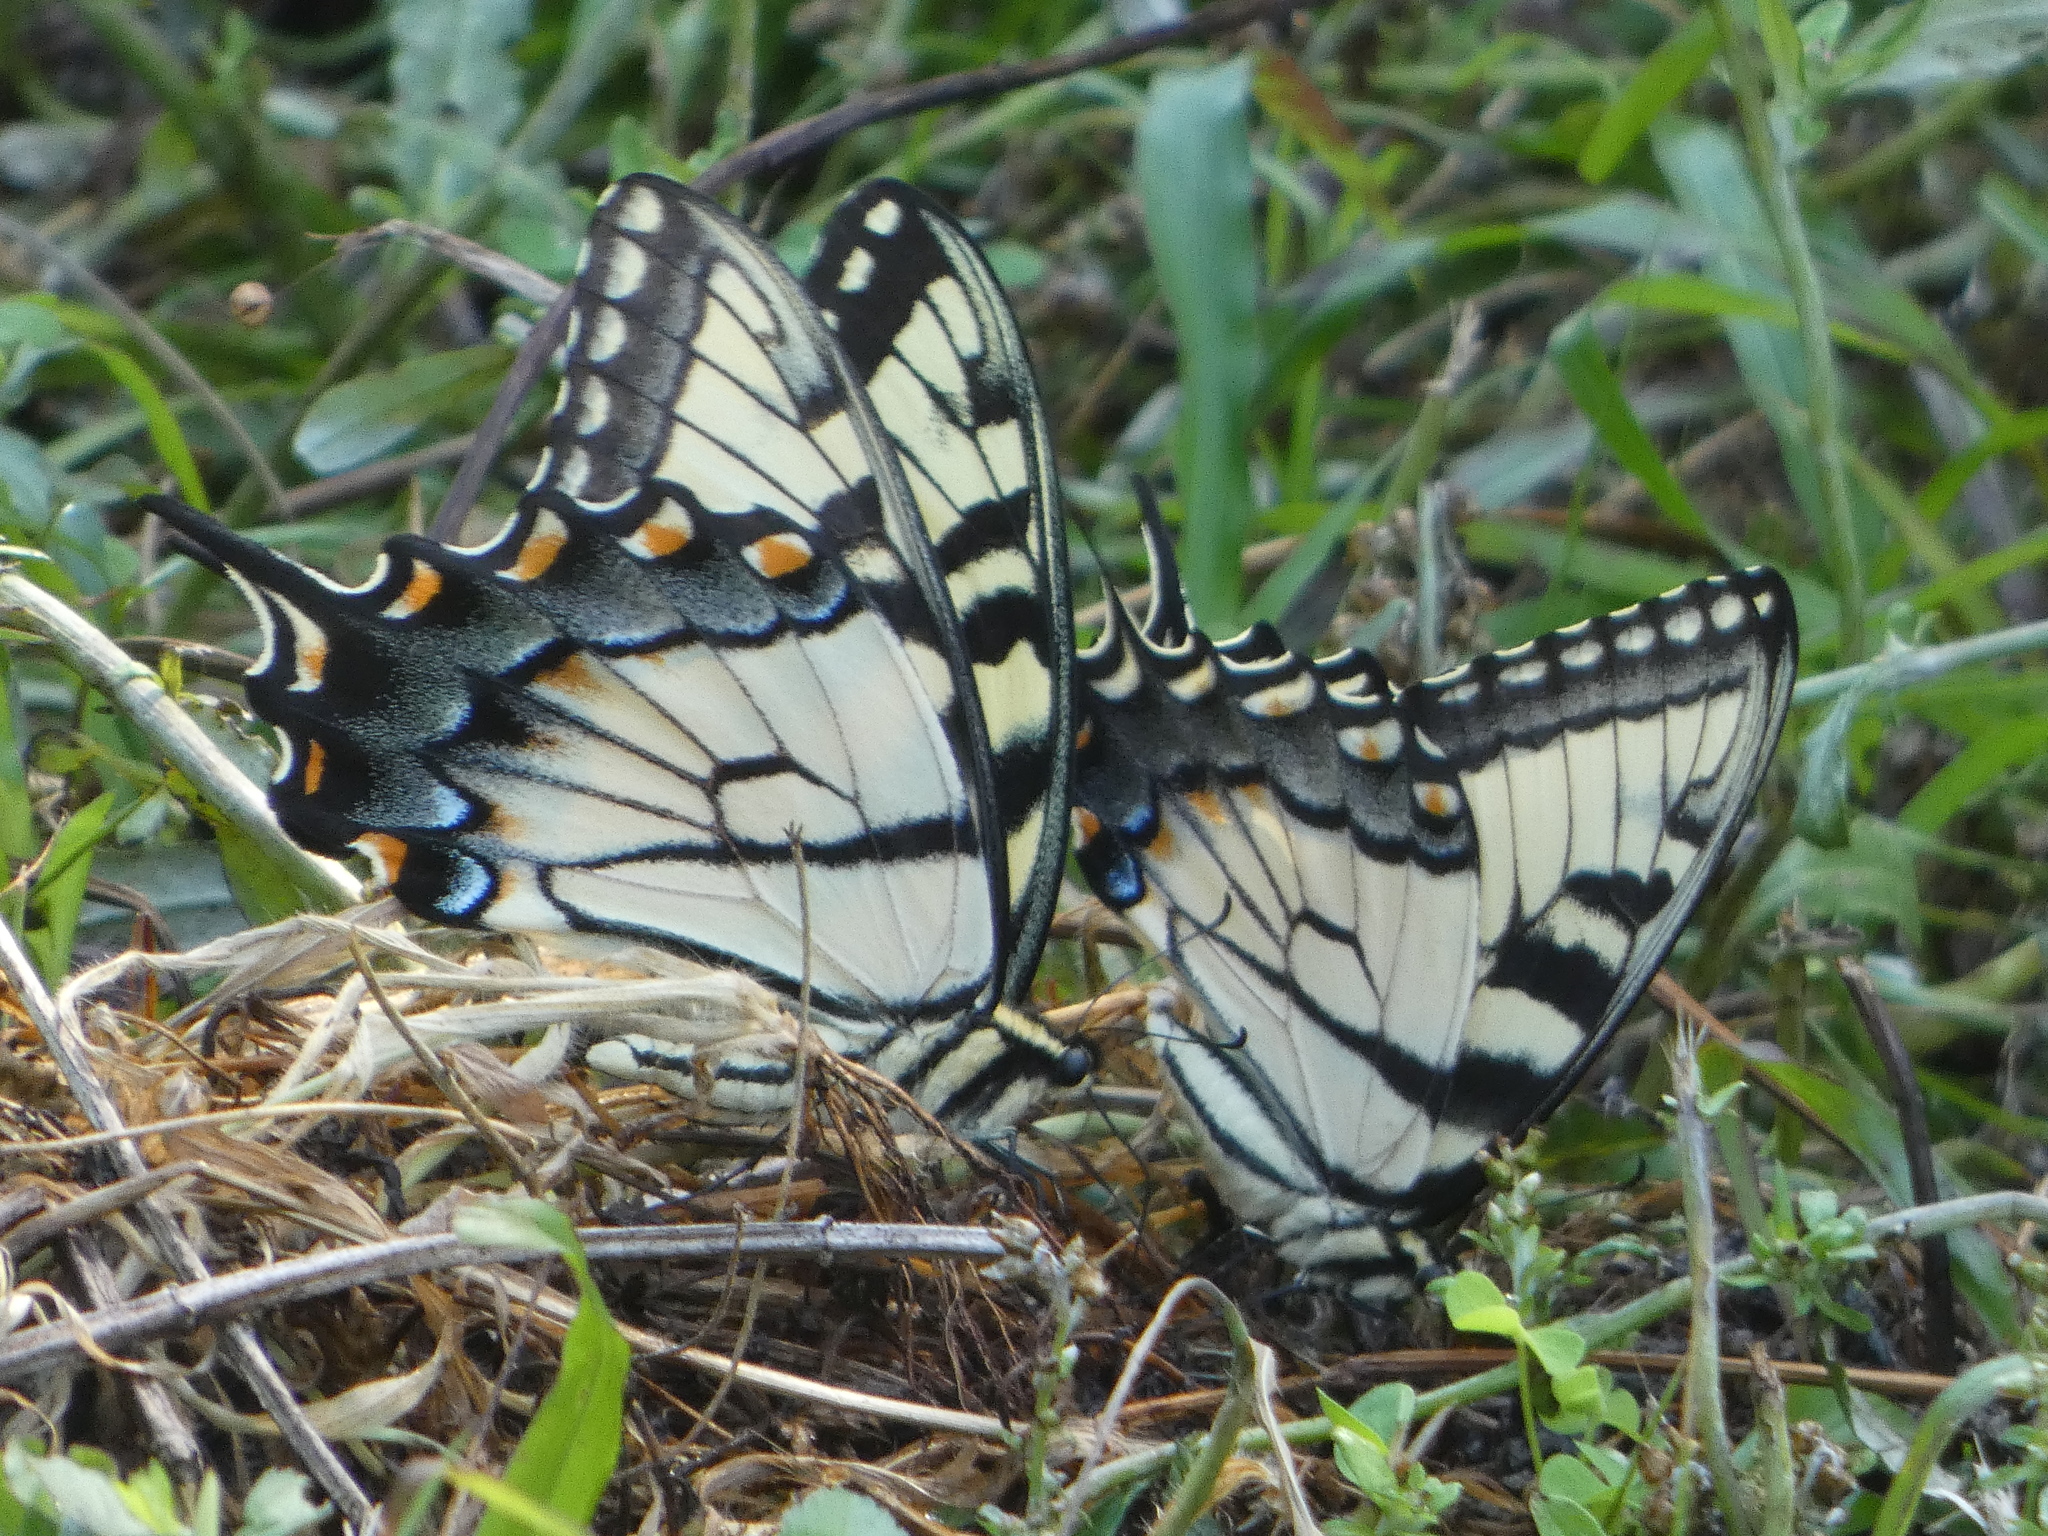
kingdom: Animalia
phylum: Arthropoda
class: Insecta
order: Lepidoptera
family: Papilionidae
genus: Papilio
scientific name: Papilio glaucus
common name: Tiger swallowtail
